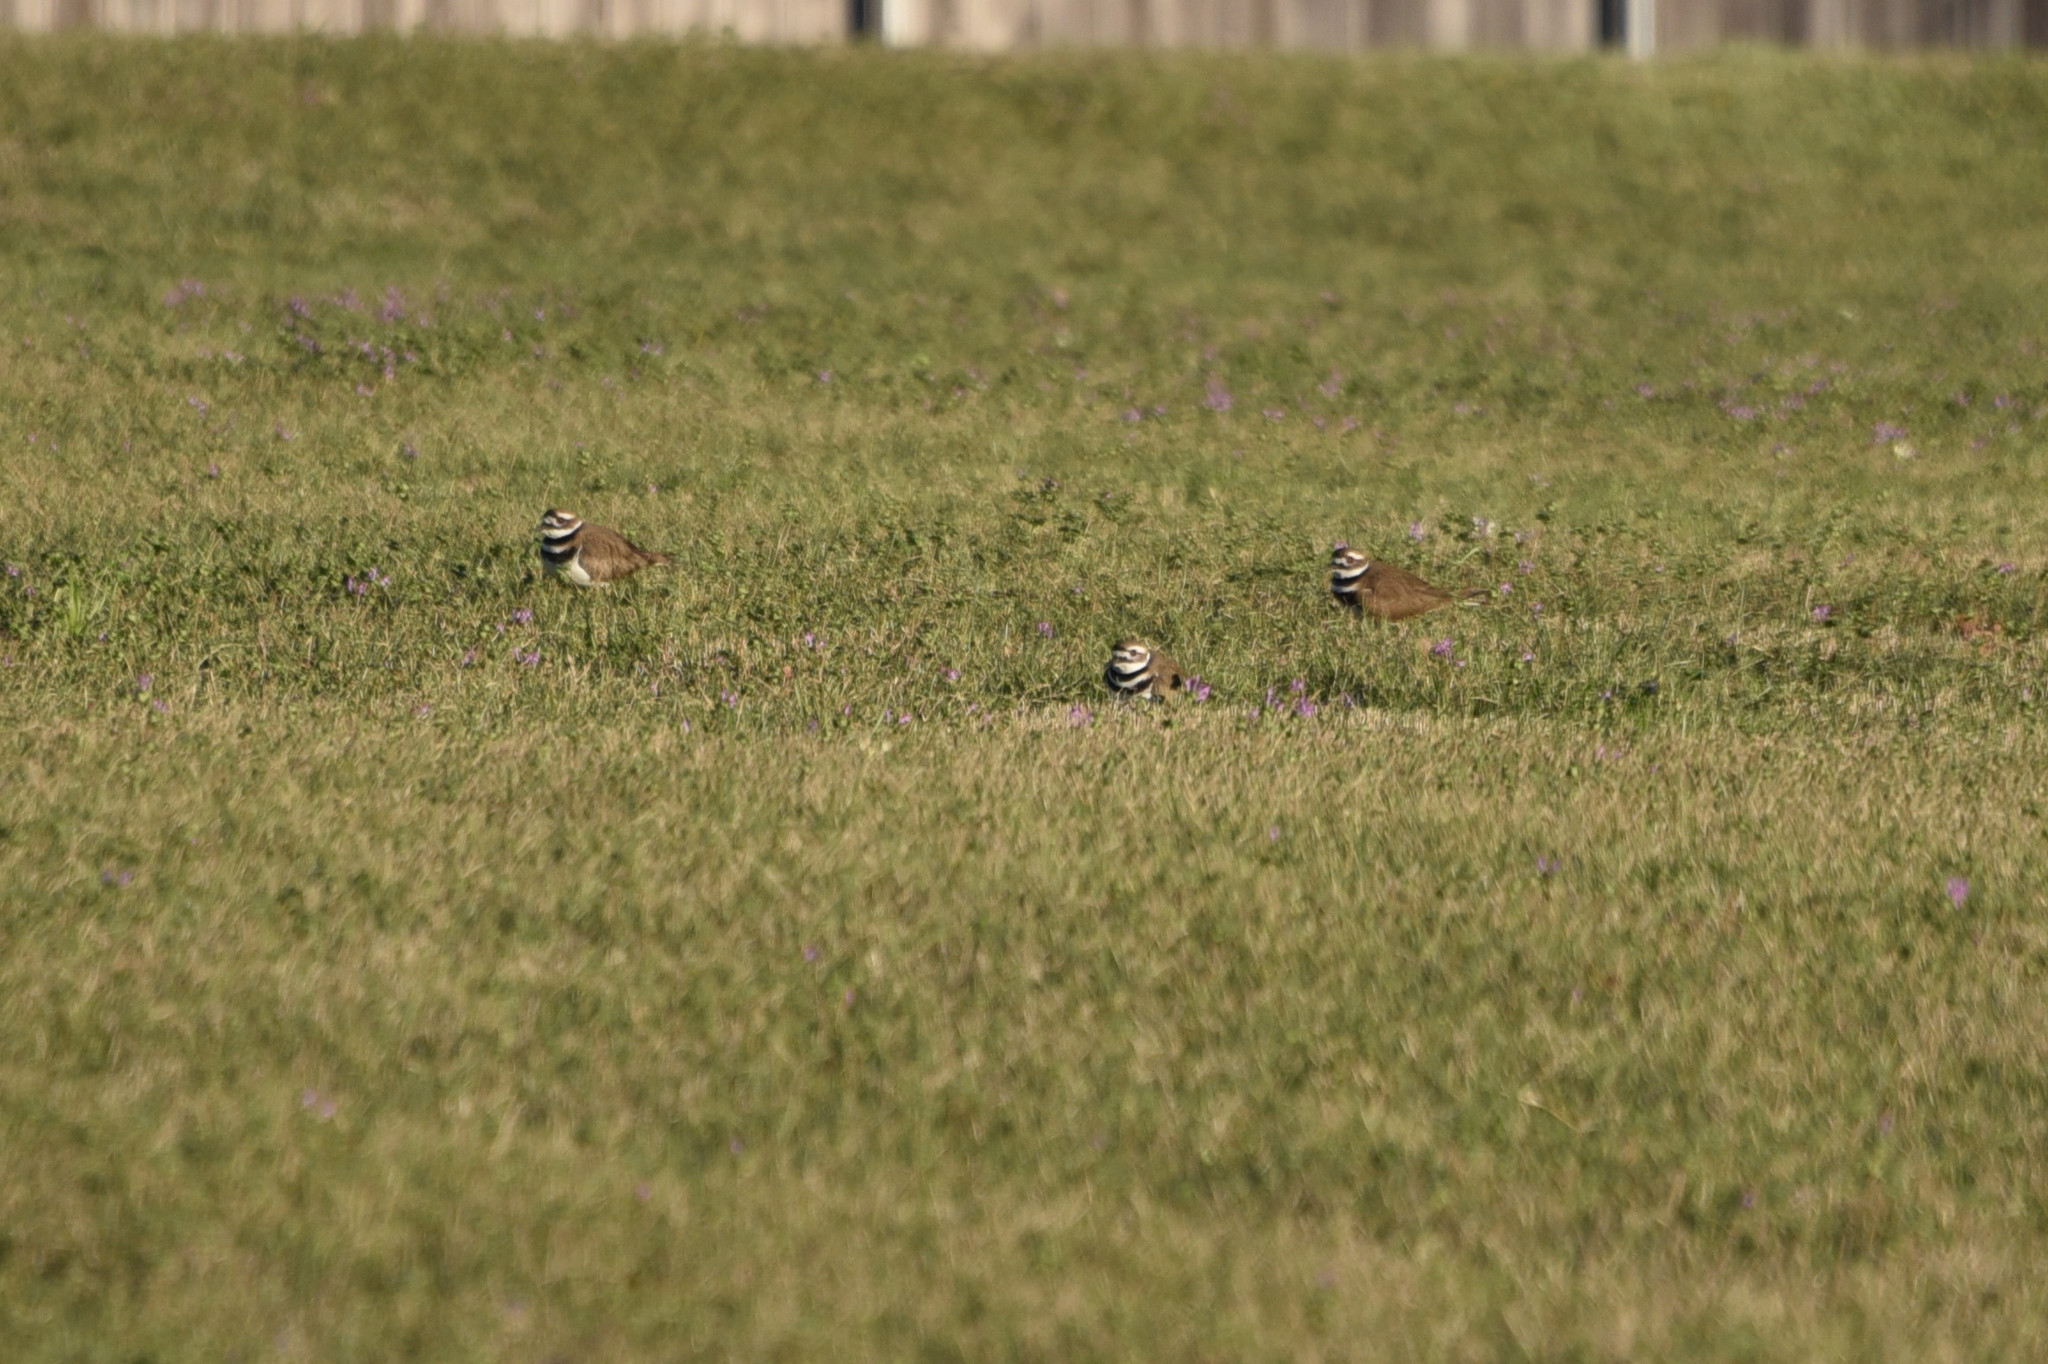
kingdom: Animalia
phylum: Chordata
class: Aves
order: Charadriiformes
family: Charadriidae
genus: Charadrius
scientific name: Charadrius vociferus
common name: Killdeer
